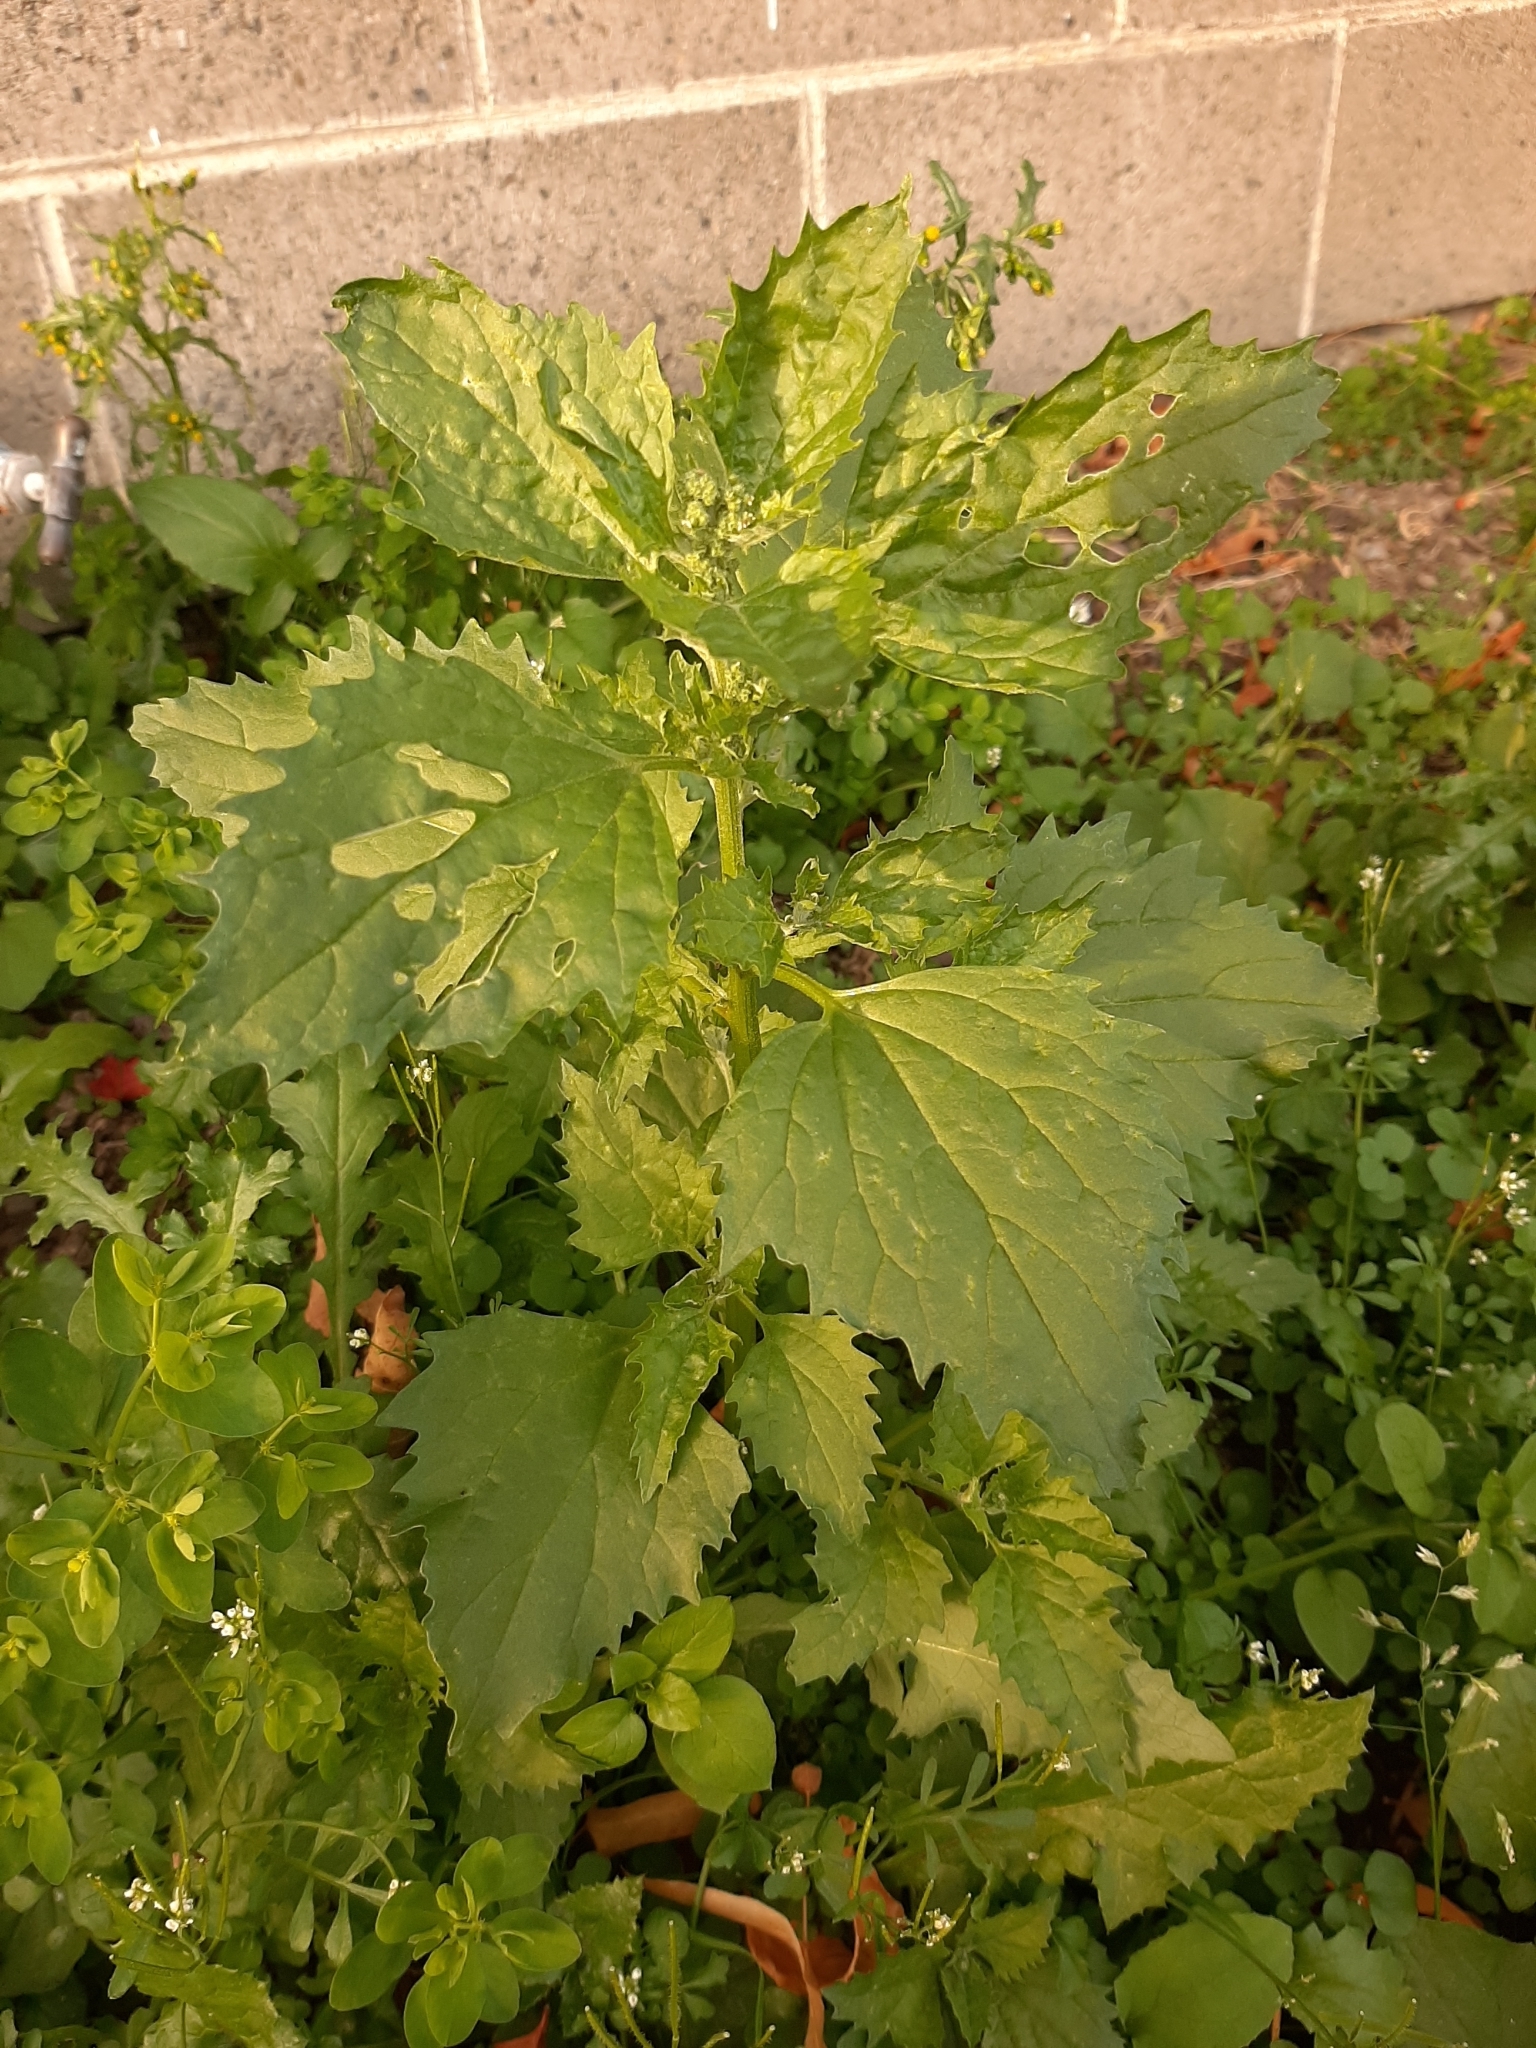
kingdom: Plantae
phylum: Tracheophyta
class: Magnoliopsida
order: Caryophyllales
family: Amaranthaceae
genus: Chenopodiastrum
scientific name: Chenopodiastrum murale
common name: Sowbane
